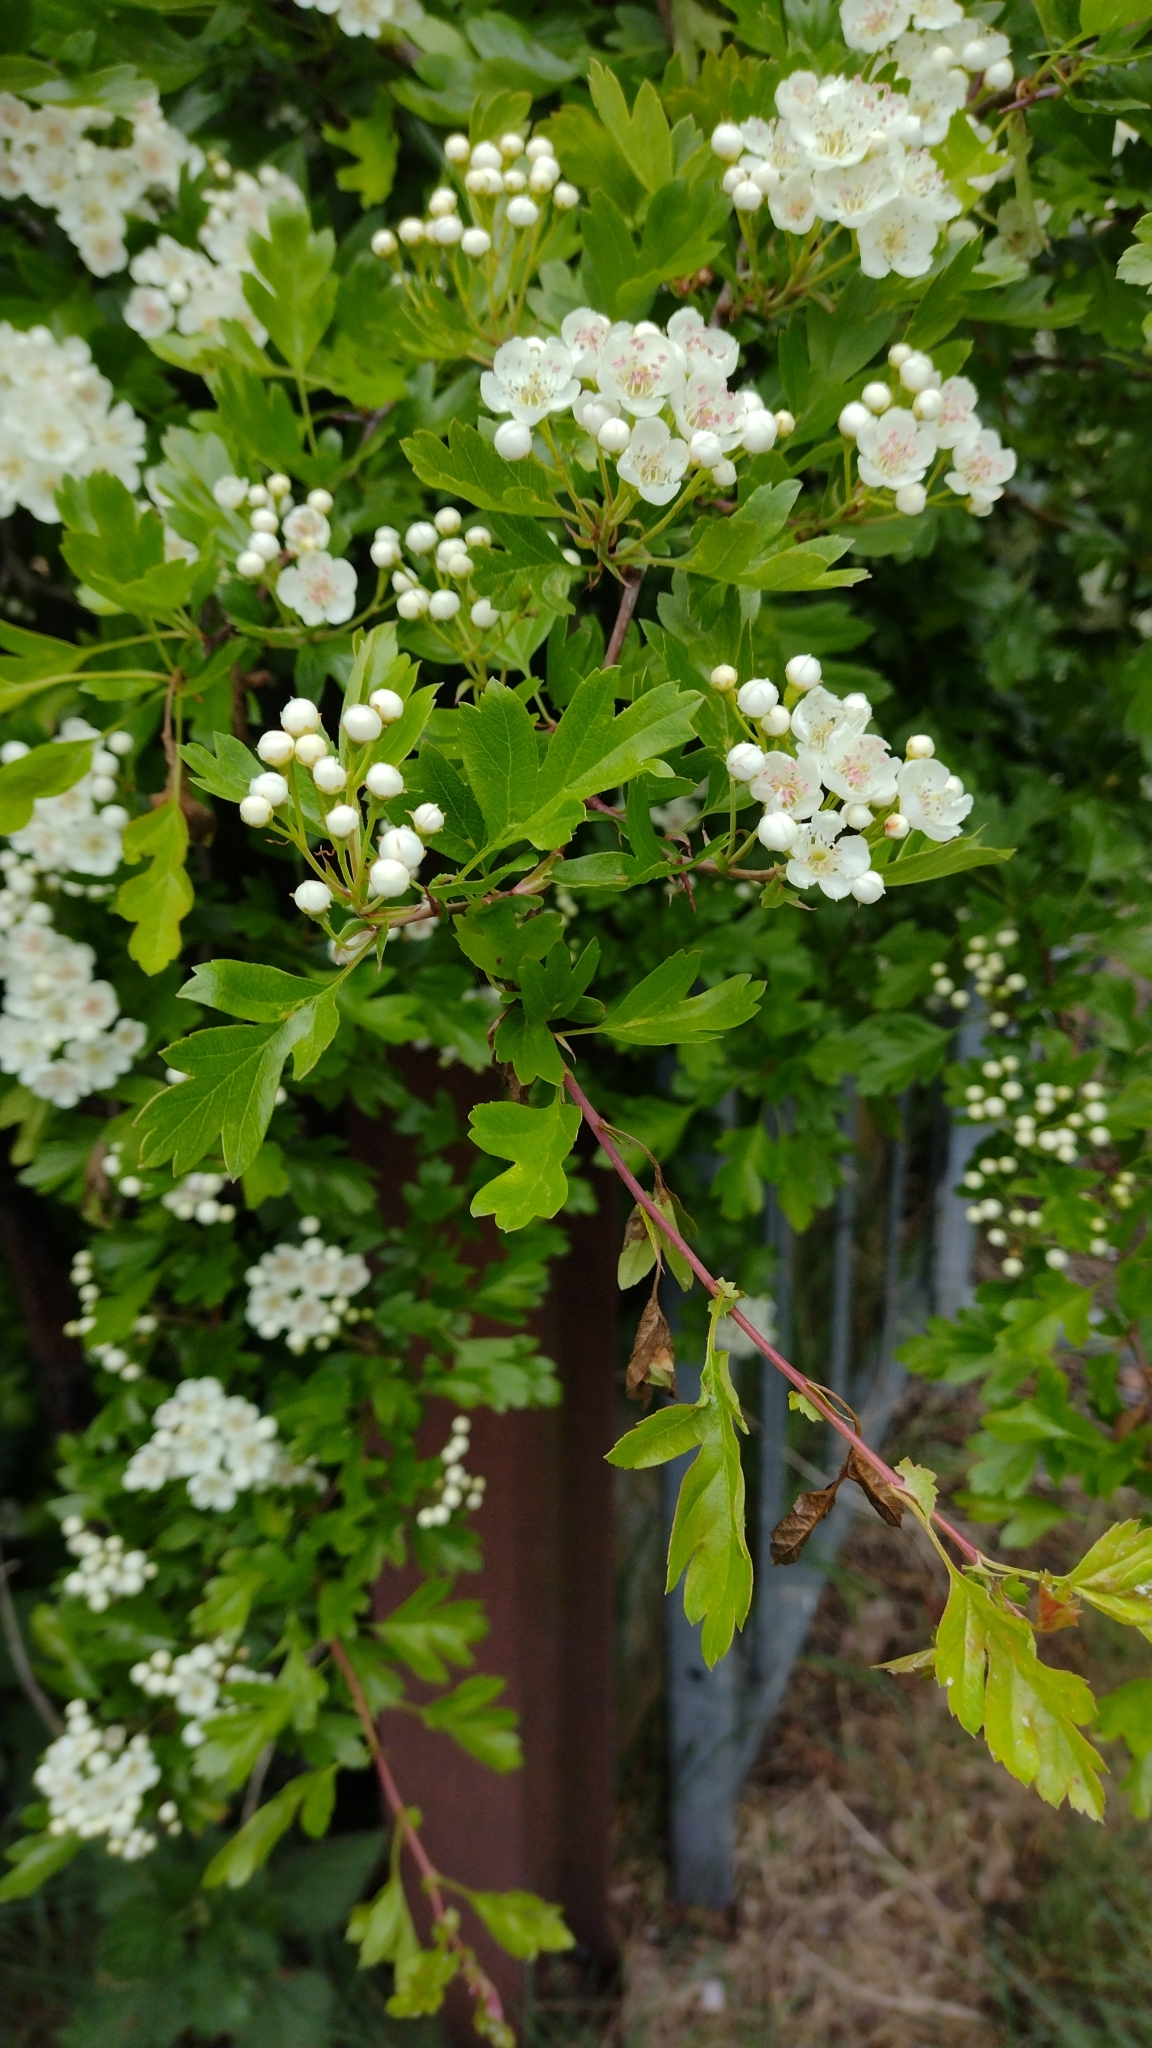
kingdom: Plantae
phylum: Tracheophyta
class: Magnoliopsida
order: Rosales
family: Rosaceae
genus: Crataegus
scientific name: Crataegus monogyna
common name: Hawthorn
